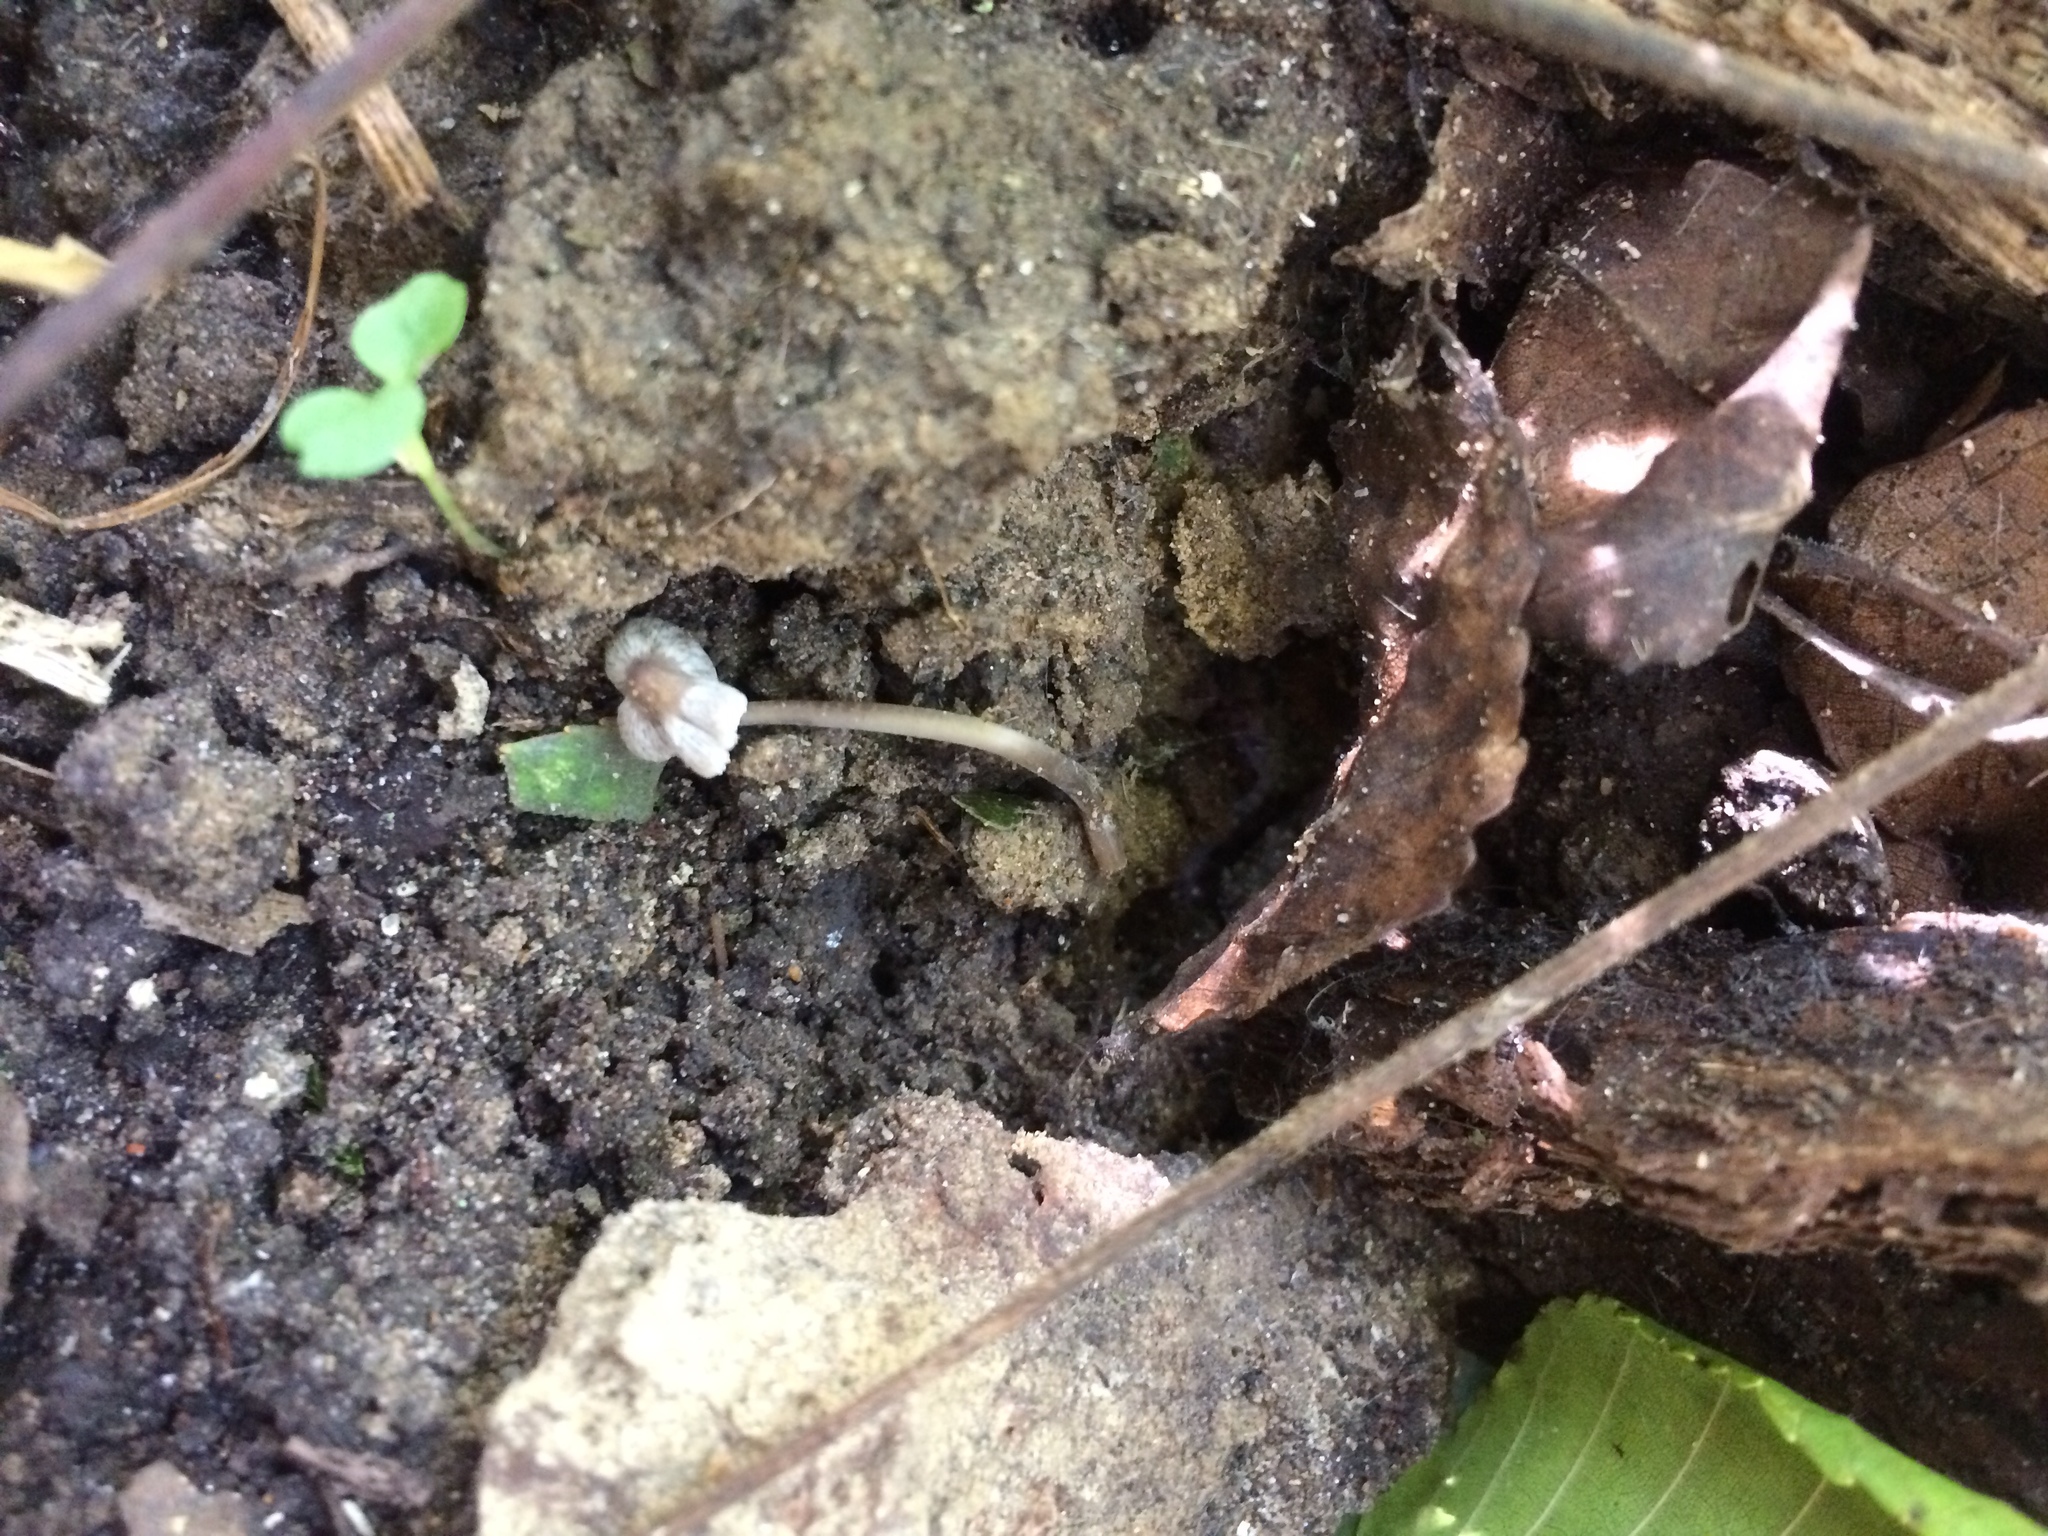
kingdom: Fungi
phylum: Basidiomycota
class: Agaricomycetes
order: Agaricales
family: Mycenaceae
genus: Mycena
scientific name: Mycena filopes
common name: Iodine bonnet
